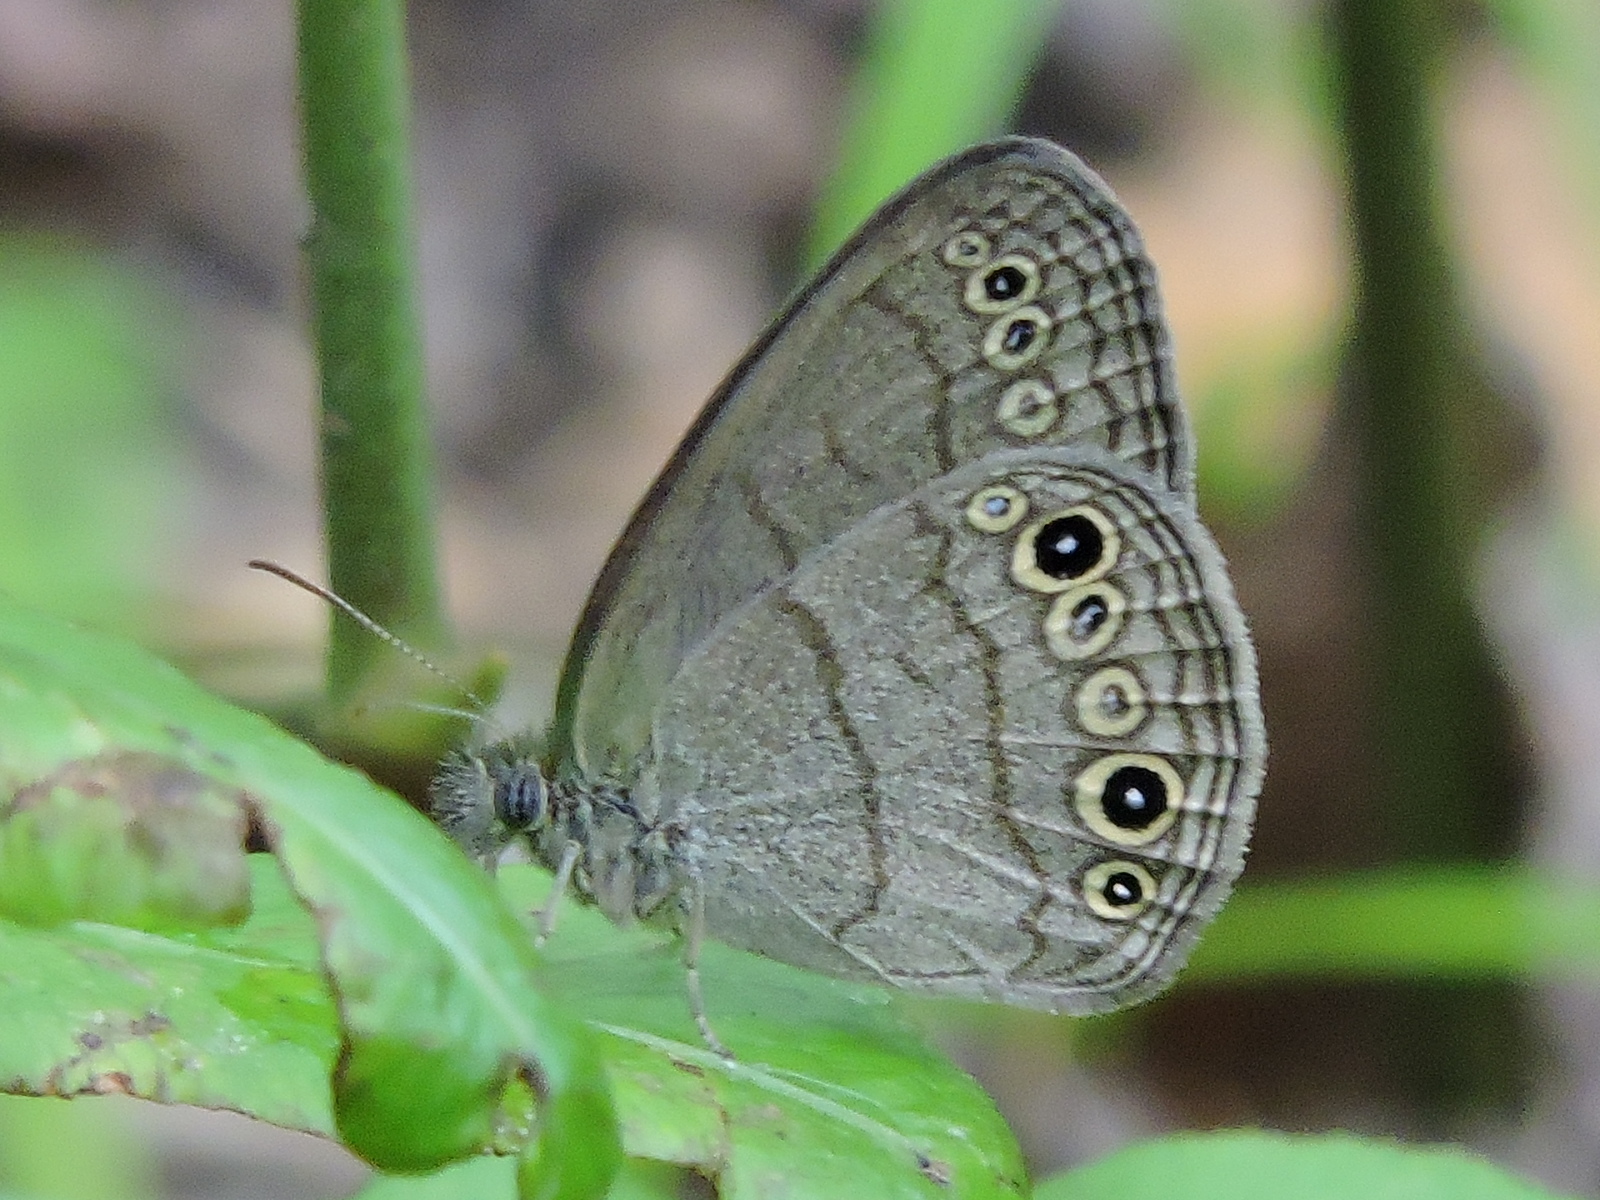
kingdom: Animalia
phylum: Arthropoda
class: Insecta
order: Lepidoptera
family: Nymphalidae
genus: Hermeuptychia
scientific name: Hermeuptychia hermes
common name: Hermes satyr
